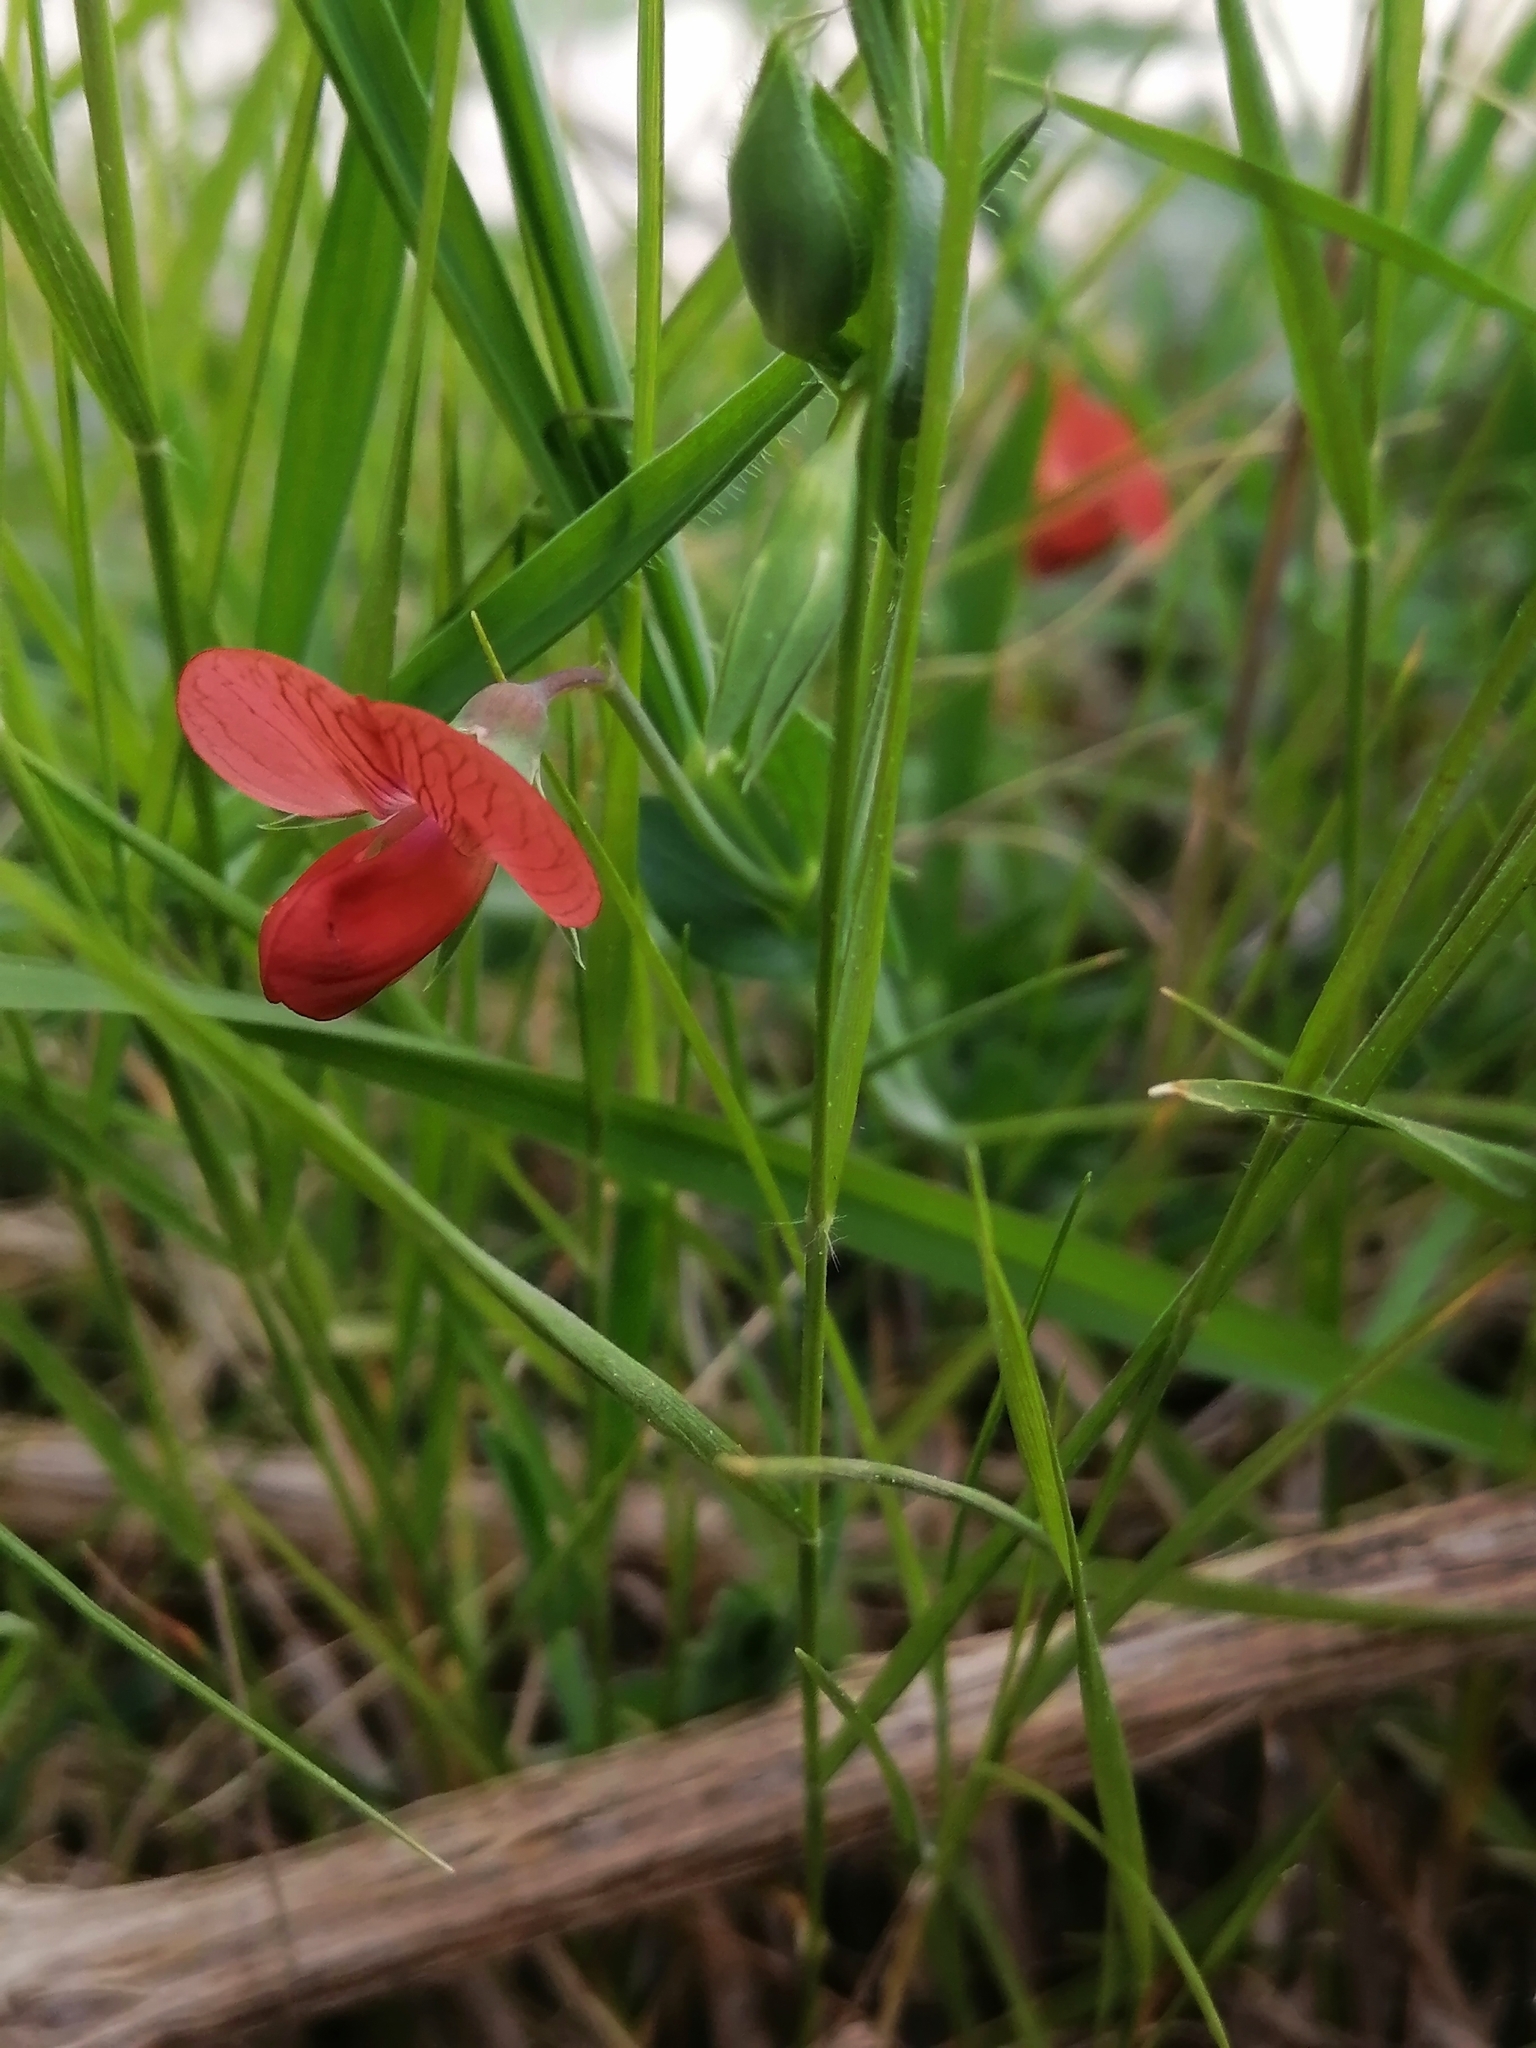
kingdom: Plantae
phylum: Tracheophyta
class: Magnoliopsida
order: Fabales
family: Fabaceae
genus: Lathyrus
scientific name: Lathyrus cicera
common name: Red vetchling
